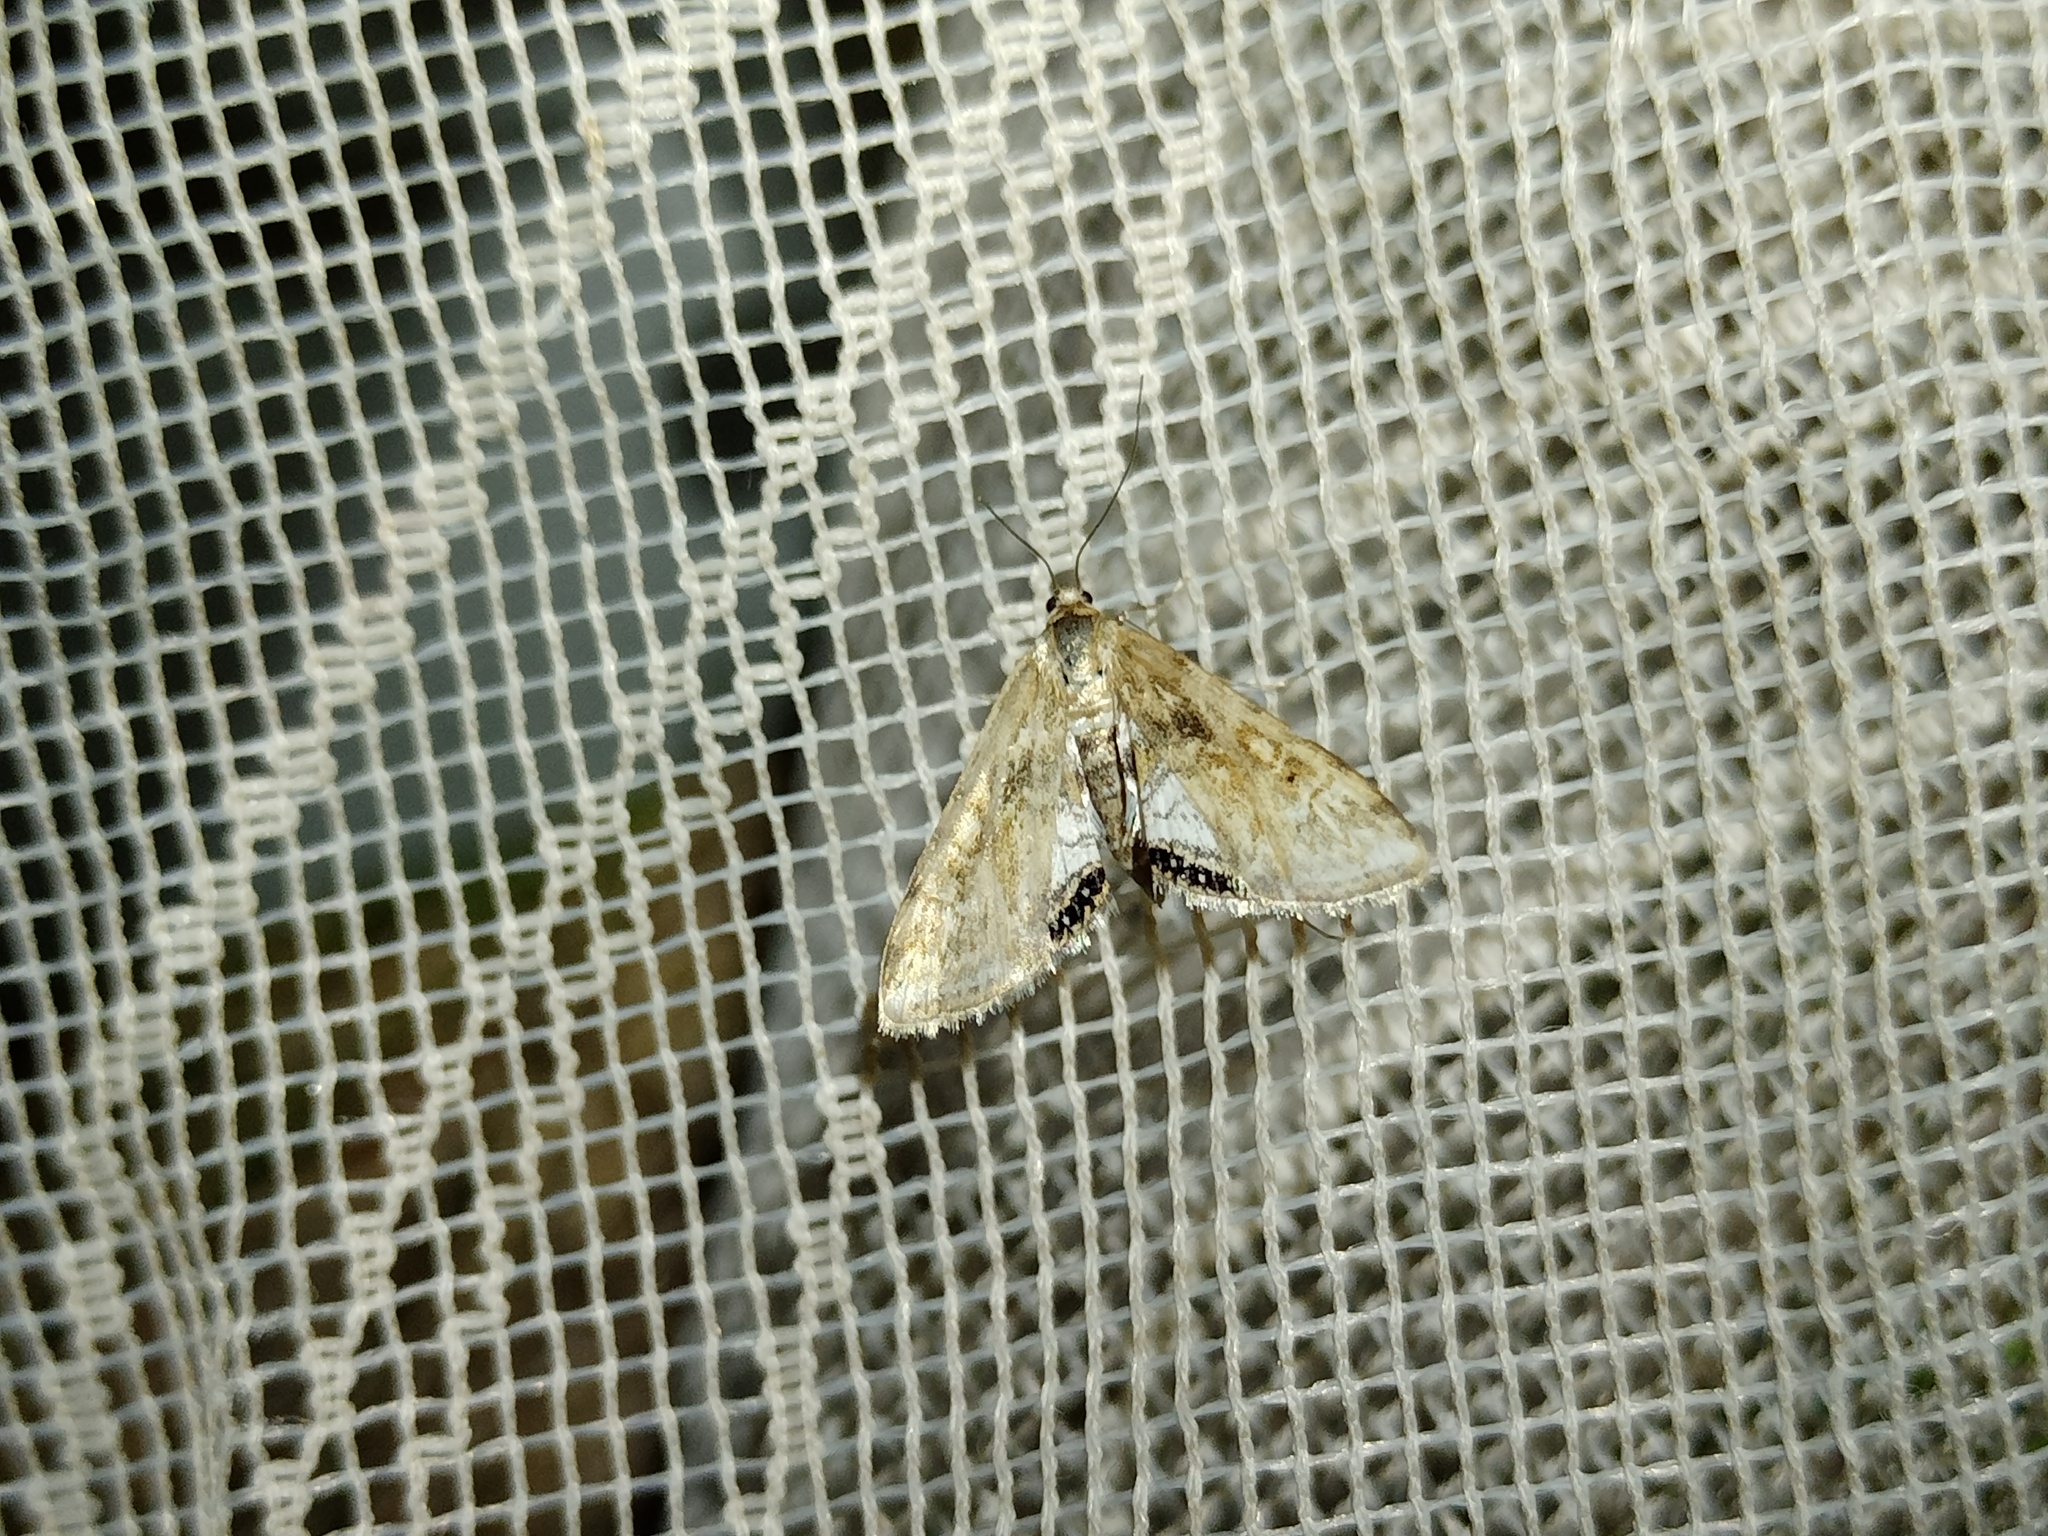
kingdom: Animalia
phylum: Arthropoda
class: Insecta
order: Lepidoptera
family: Crambidae
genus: Cataclysta
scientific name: Cataclysta lemnata
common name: Small china-mark
